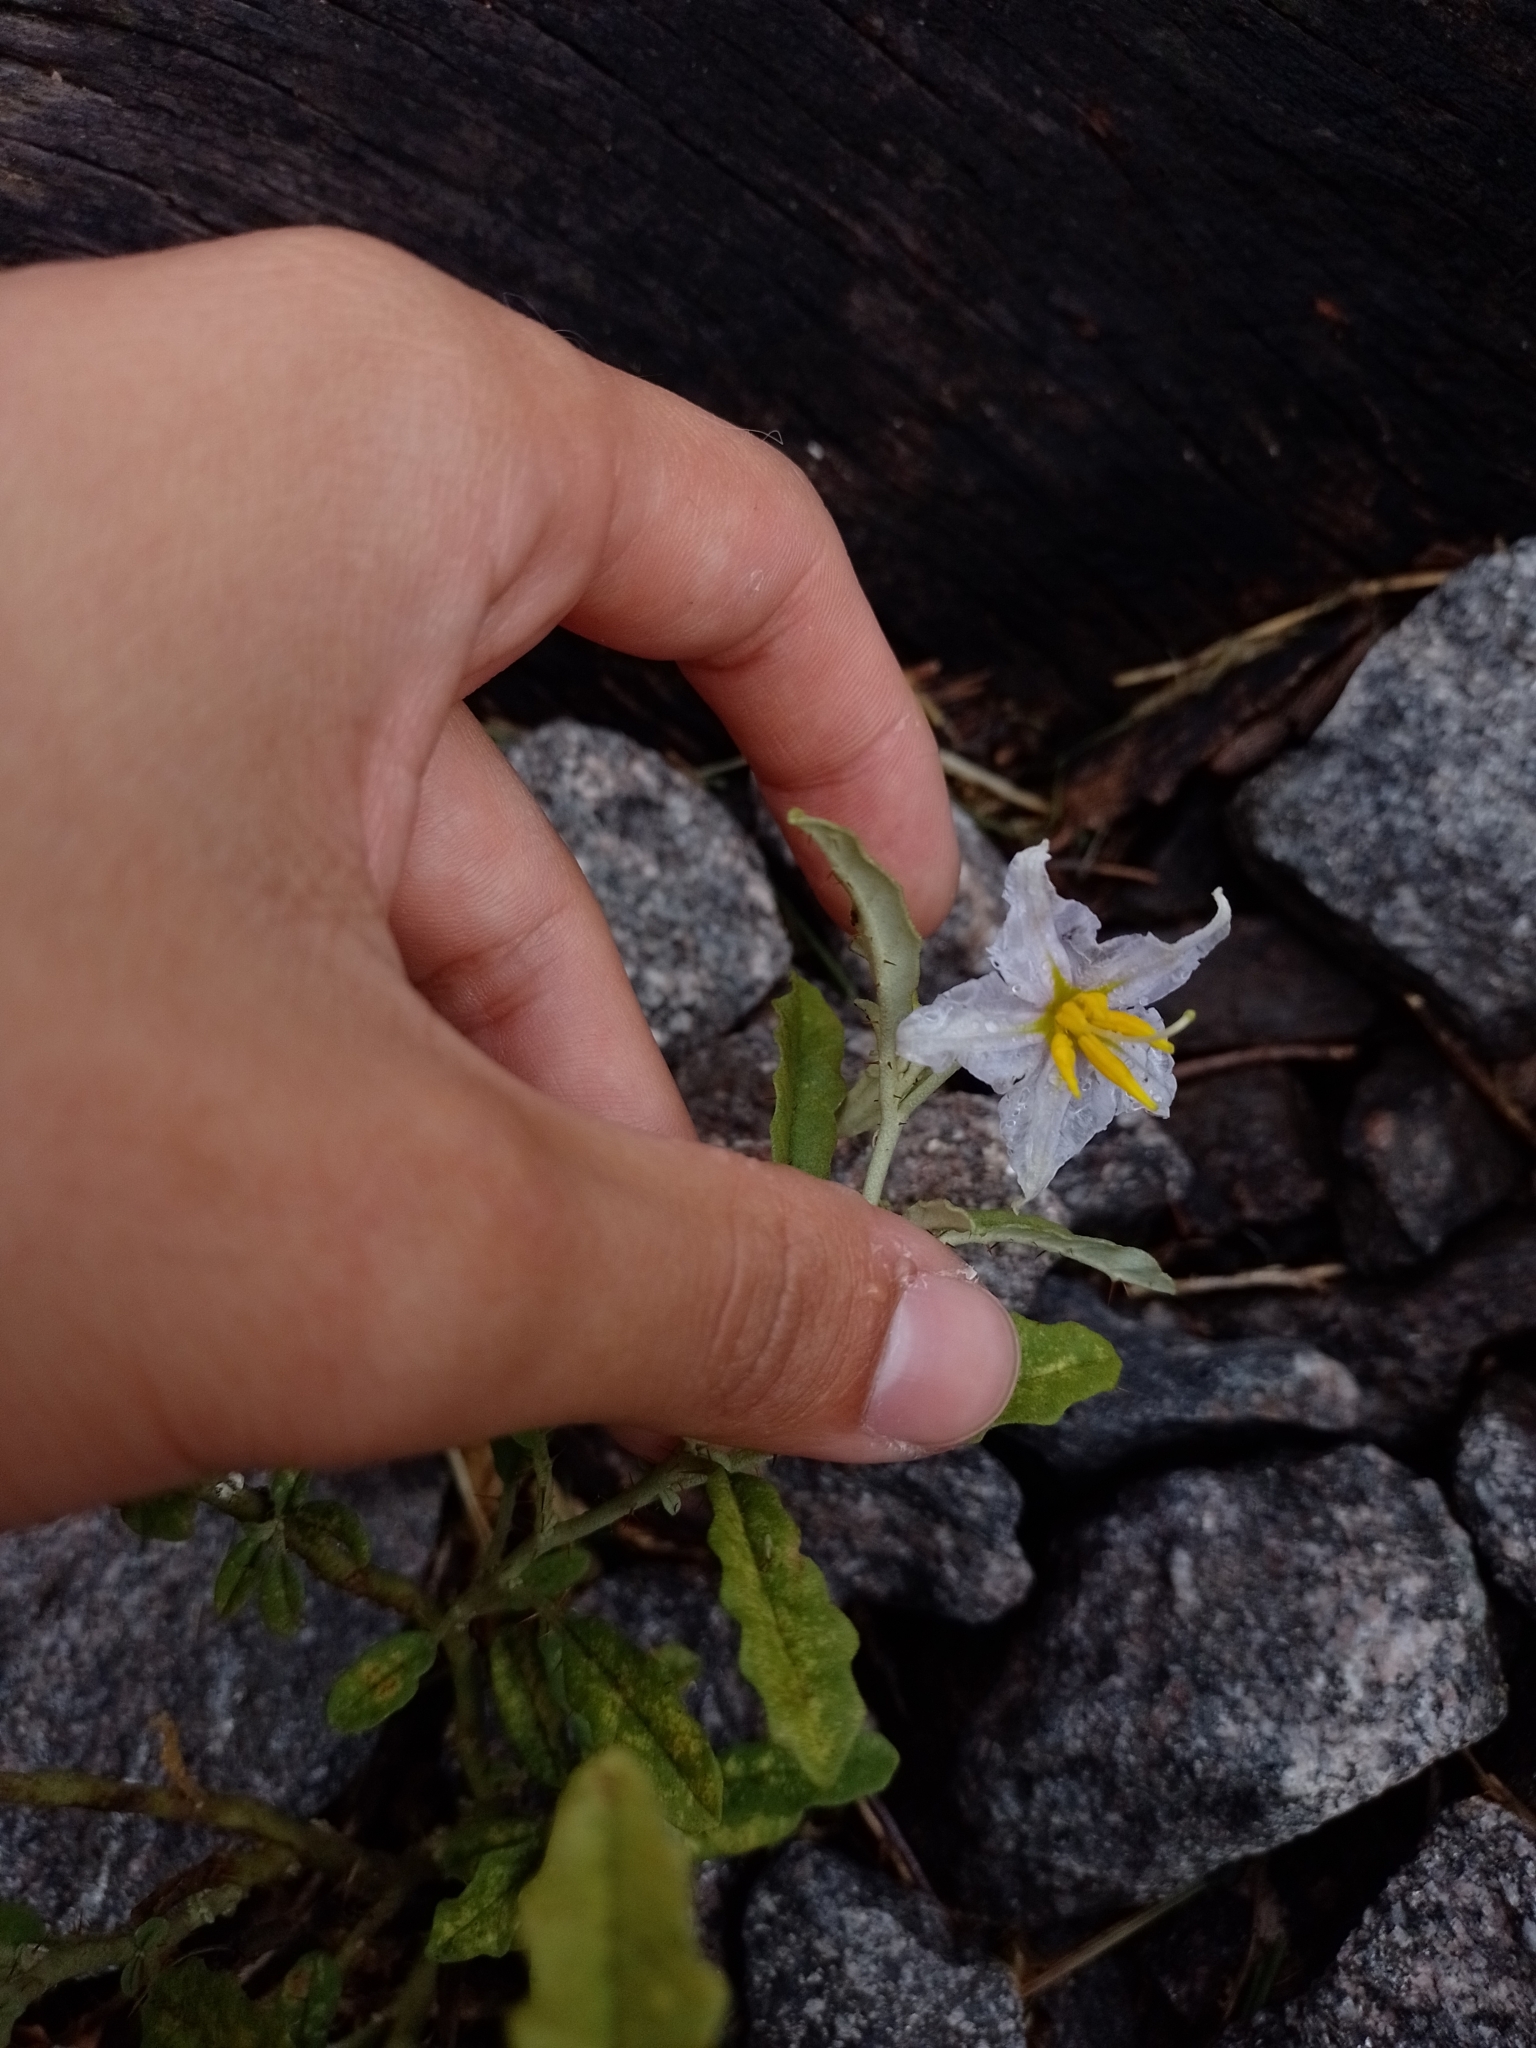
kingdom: Plantae
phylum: Tracheophyta
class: Magnoliopsida
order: Solanales
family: Solanaceae
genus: Solanum
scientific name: Solanum elaeagnifolium
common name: Silverleaf nightshade
